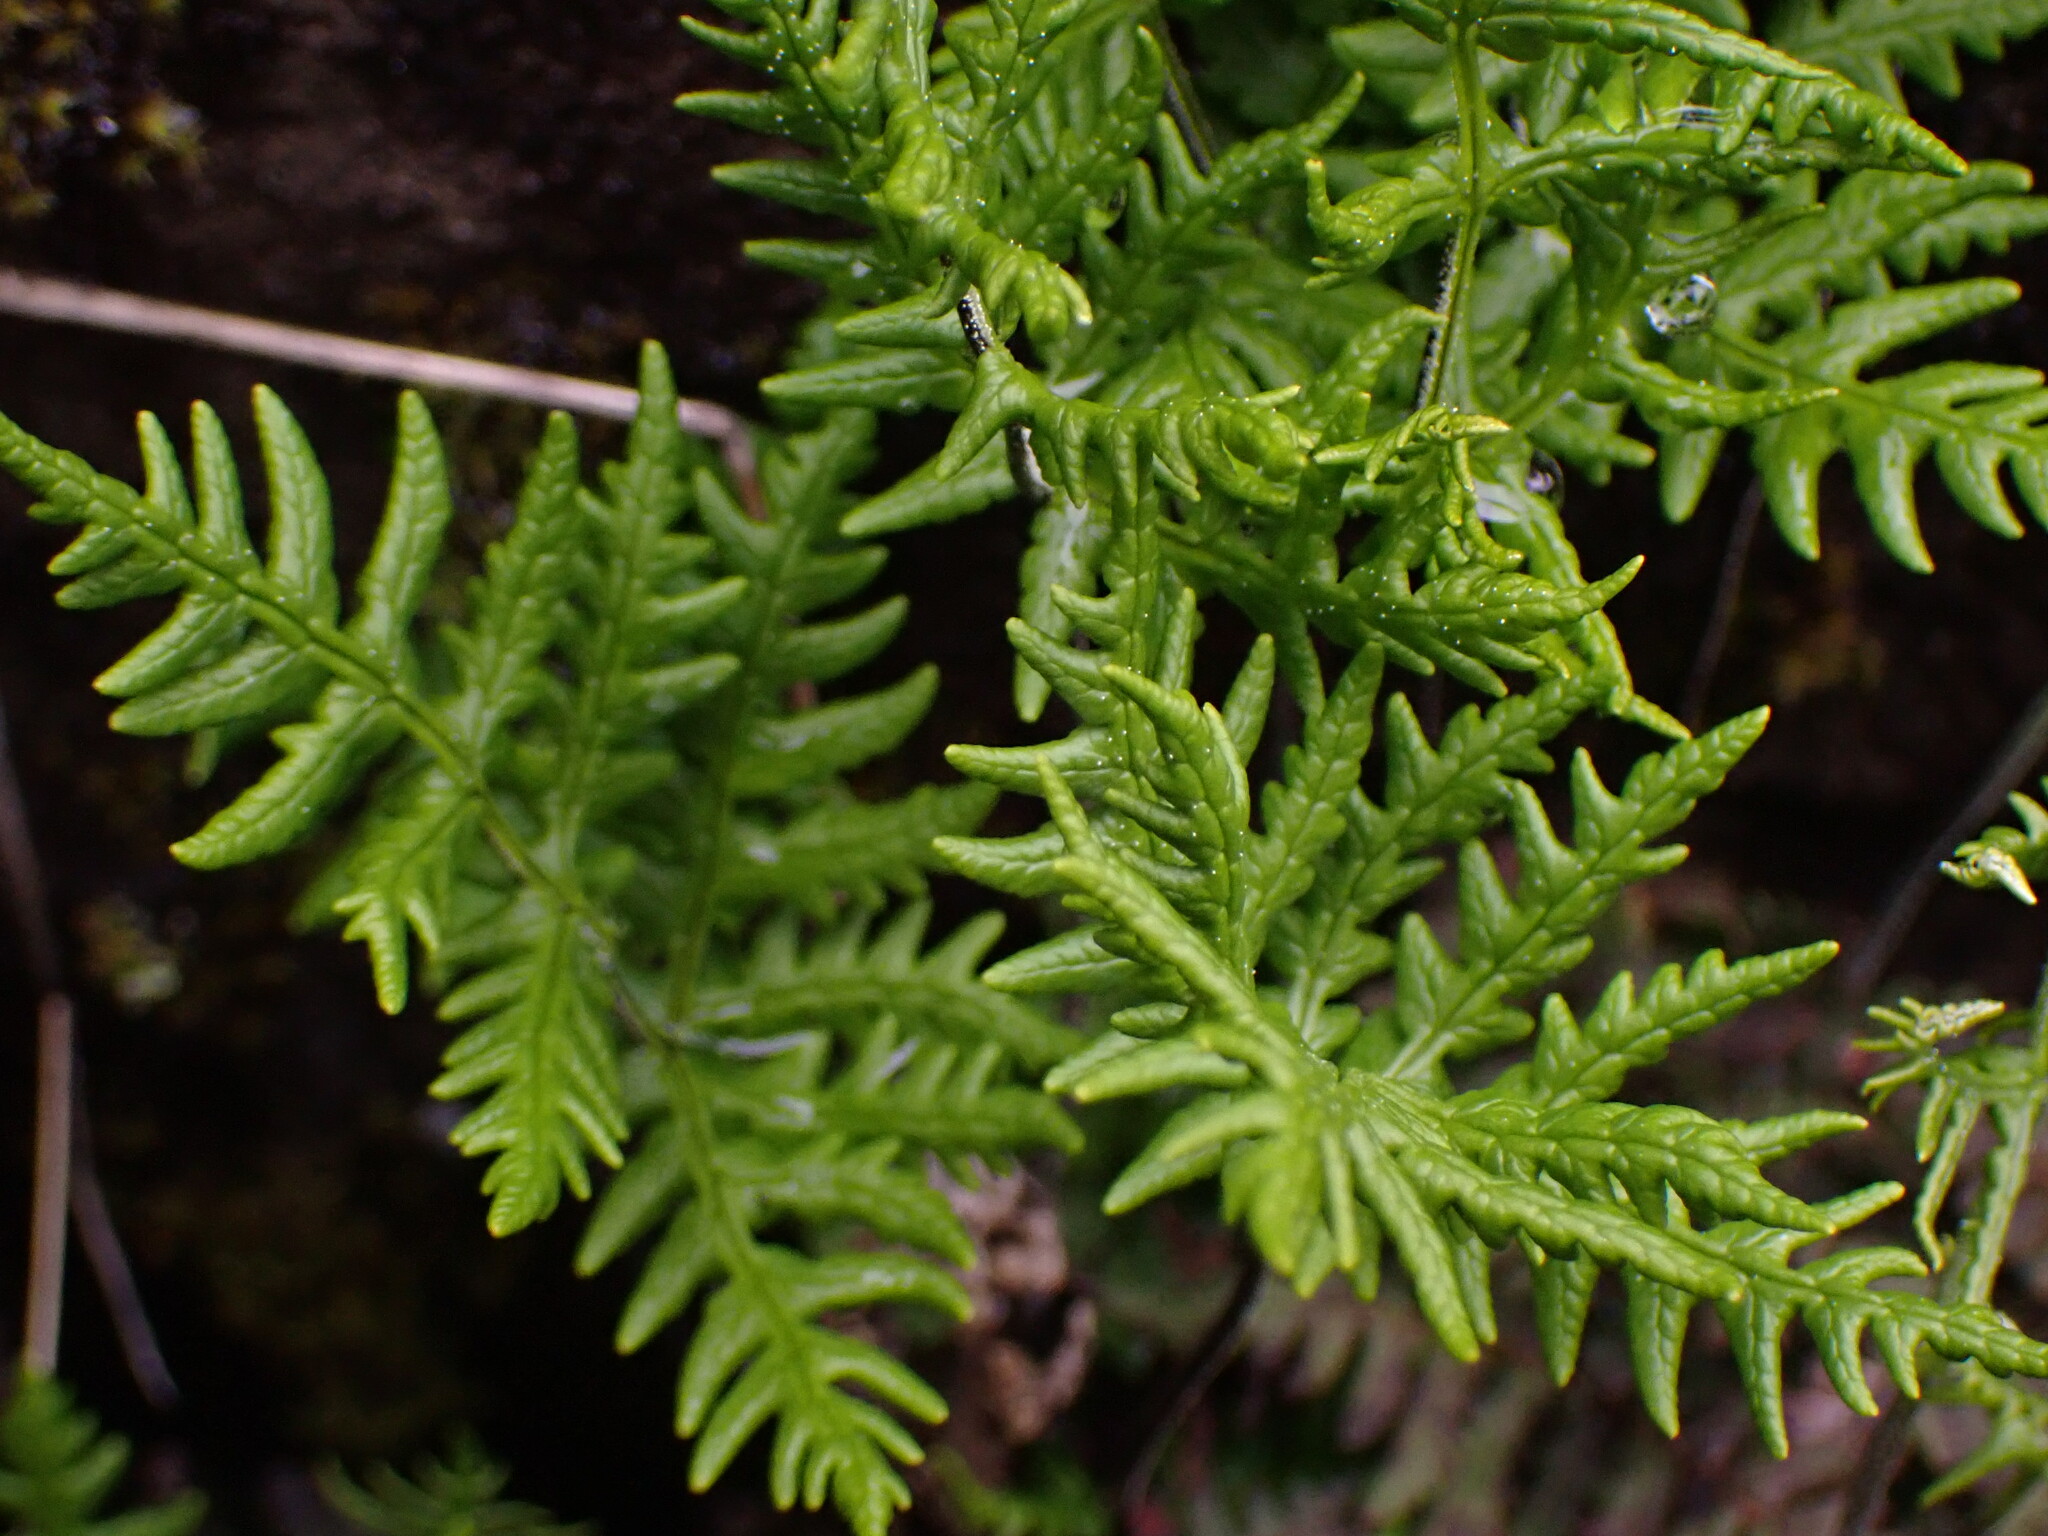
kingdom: Plantae
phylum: Tracheophyta
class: Polypodiopsida
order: Polypodiales
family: Pteridaceae
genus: Pentagramma
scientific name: Pentagramma triangularis
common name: Gold fern
